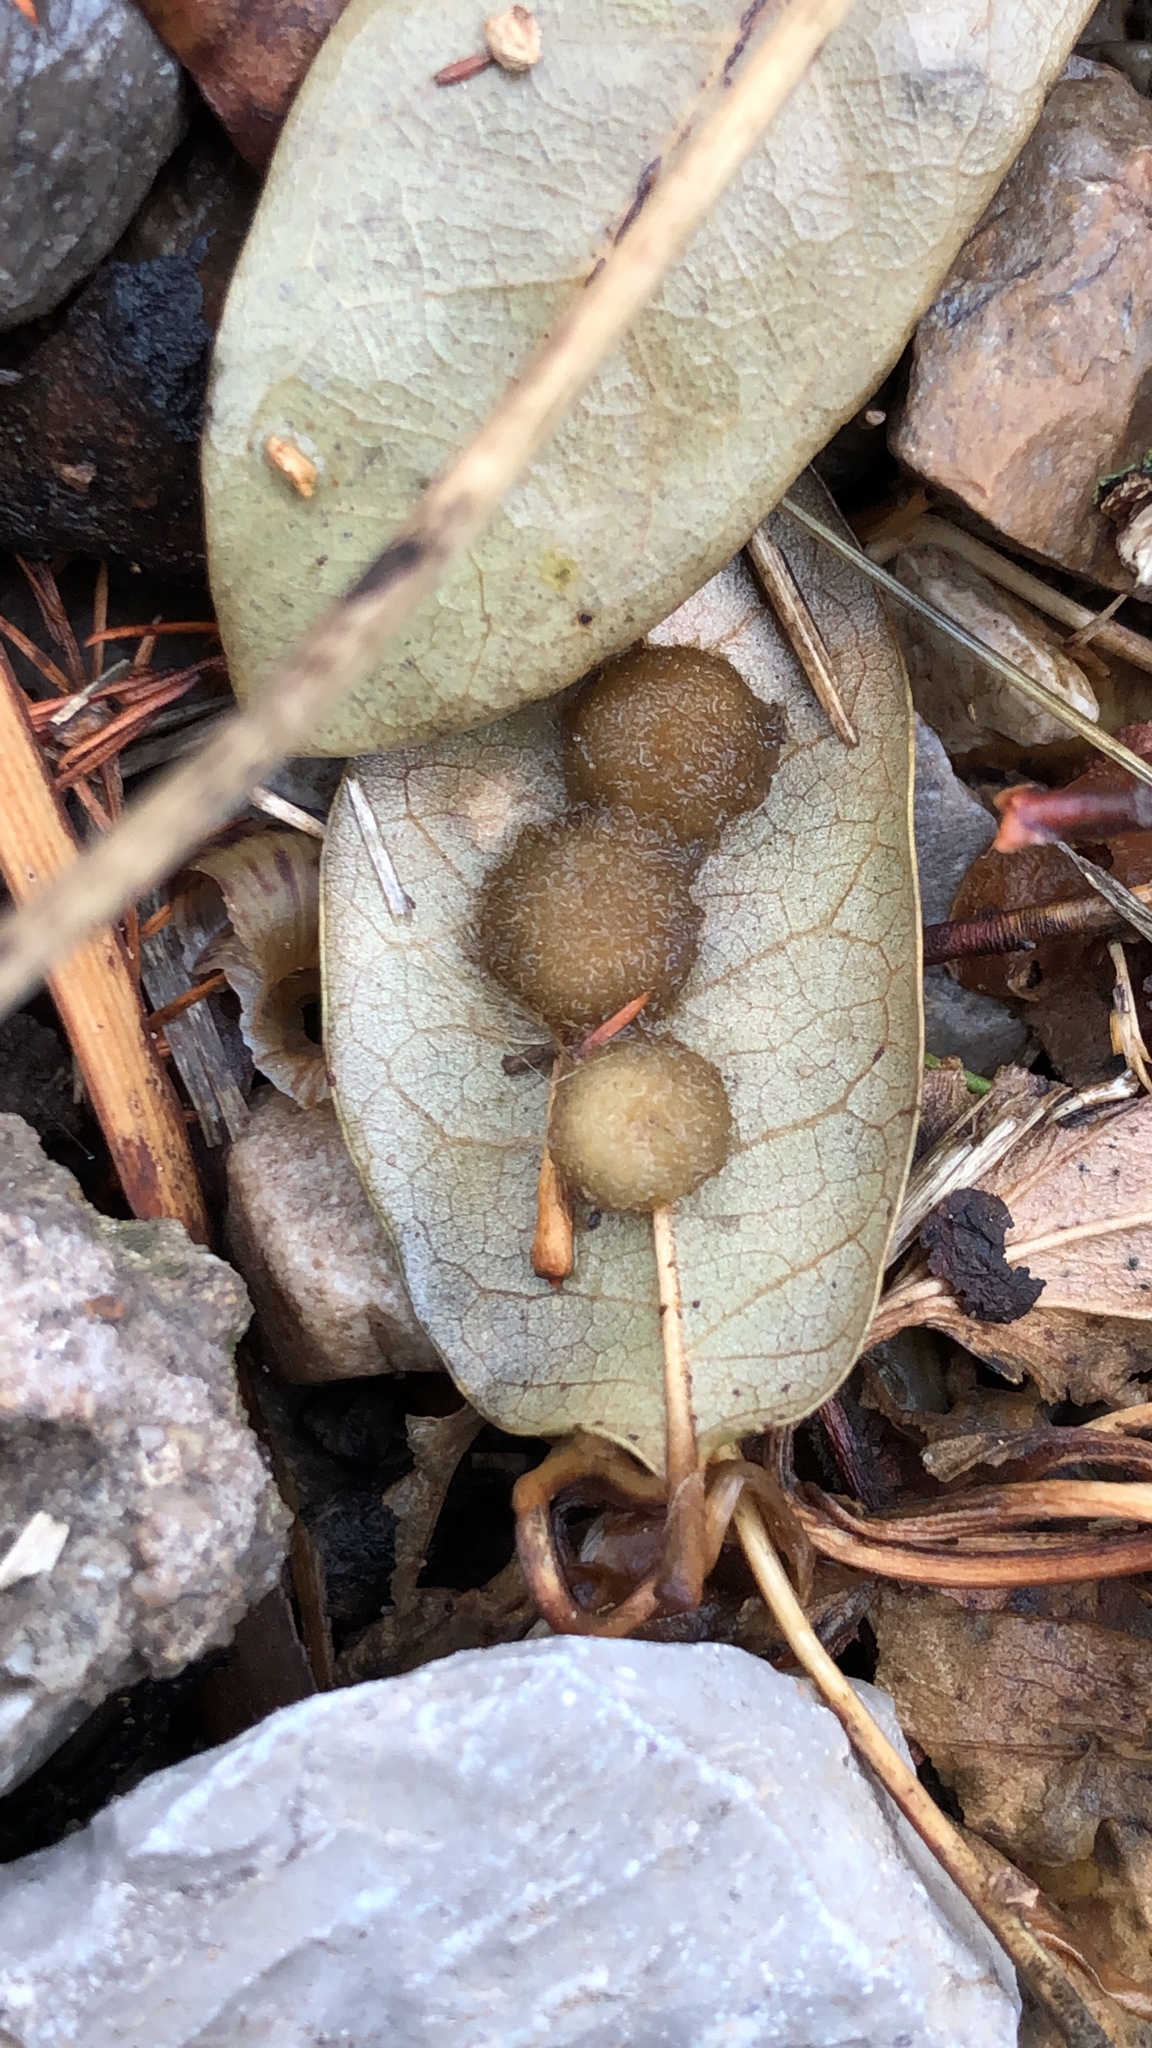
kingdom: Animalia
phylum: Arthropoda
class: Insecta
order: Hymenoptera
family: Cynipidae
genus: Andricus
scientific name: Andricus Druon quercuslanigerum
